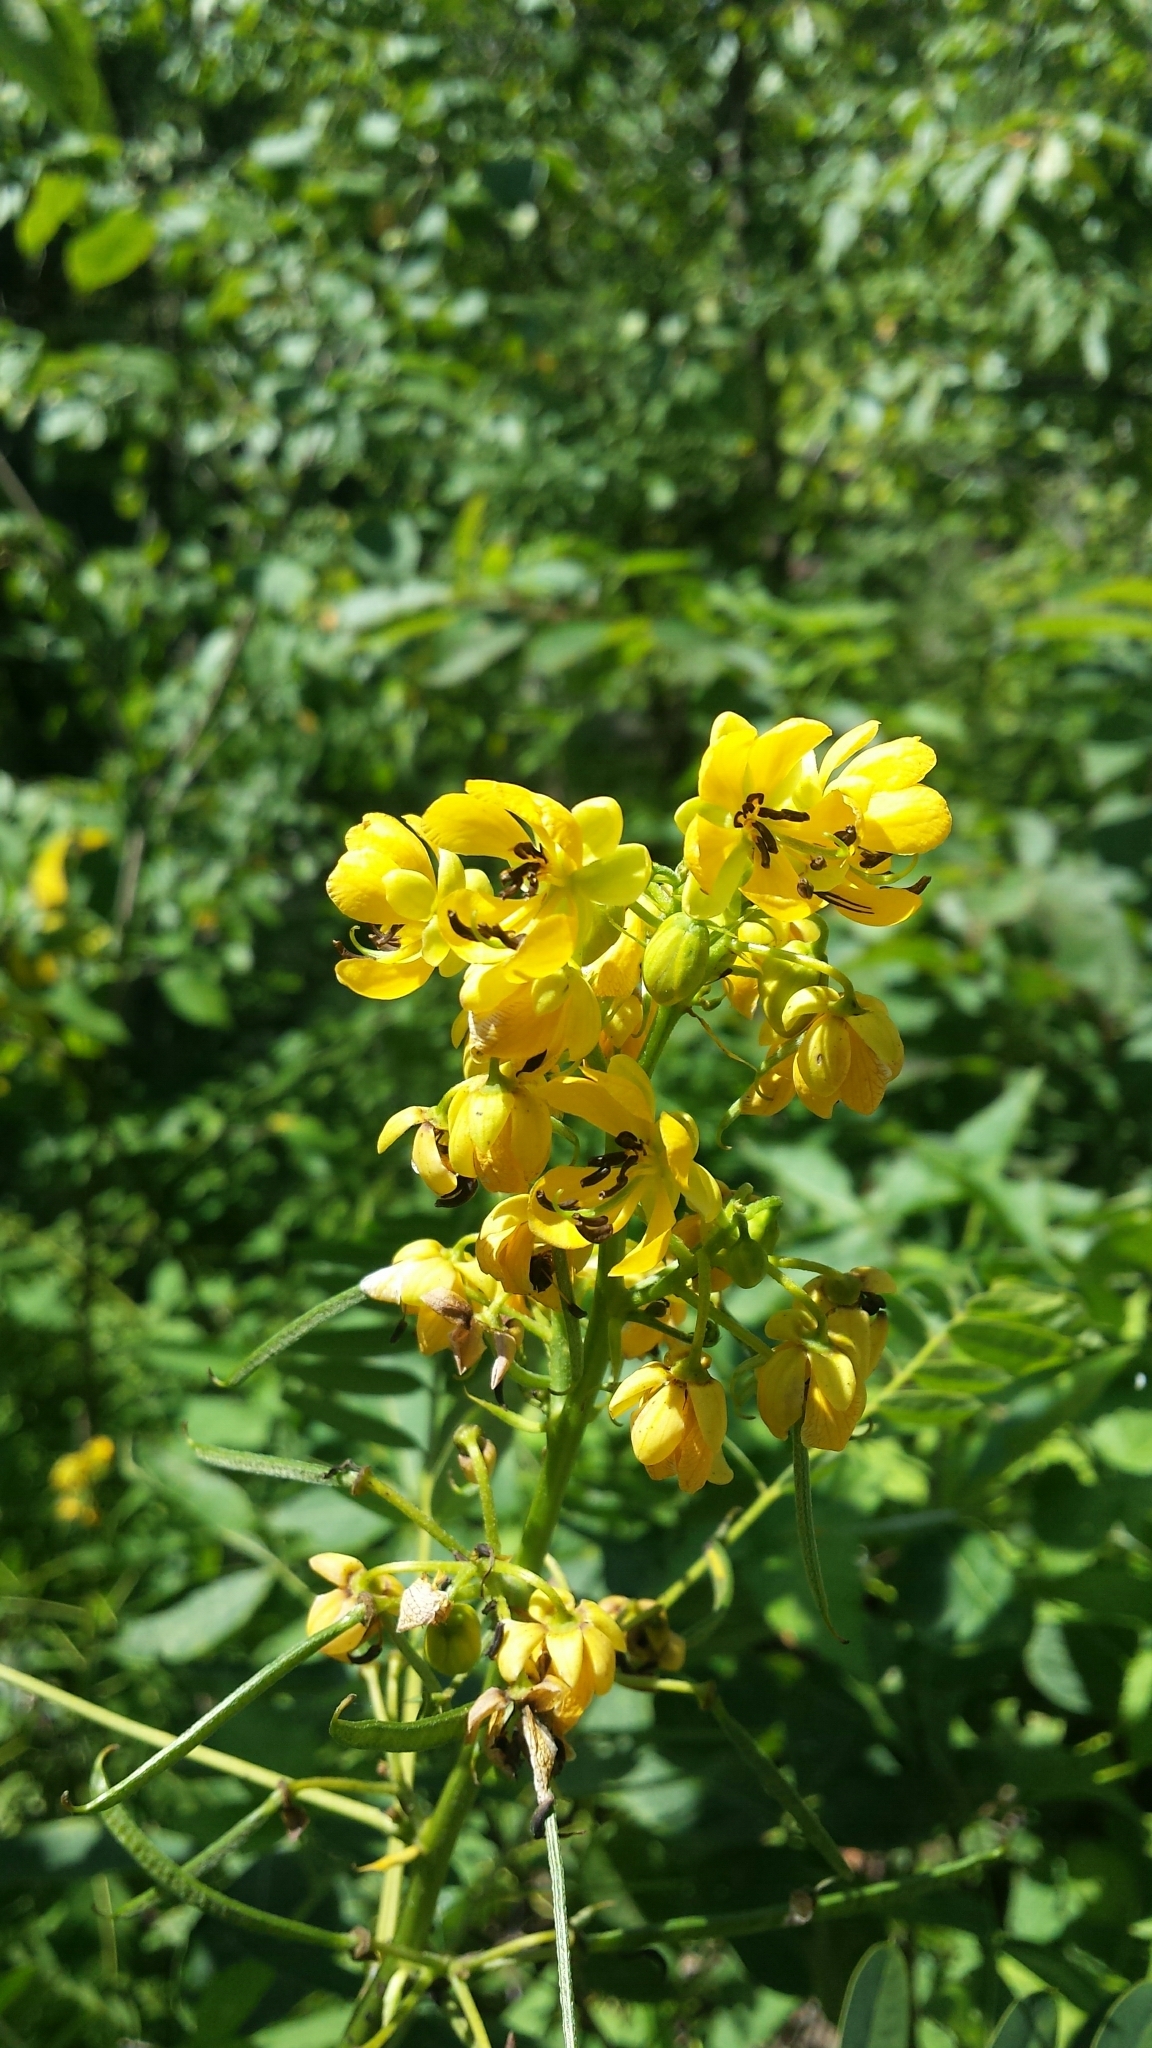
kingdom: Plantae
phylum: Tracheophyta
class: Magnoliopsida
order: Fabales
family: Fabaceae
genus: Senna
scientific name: Senna marilandica
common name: American senna
